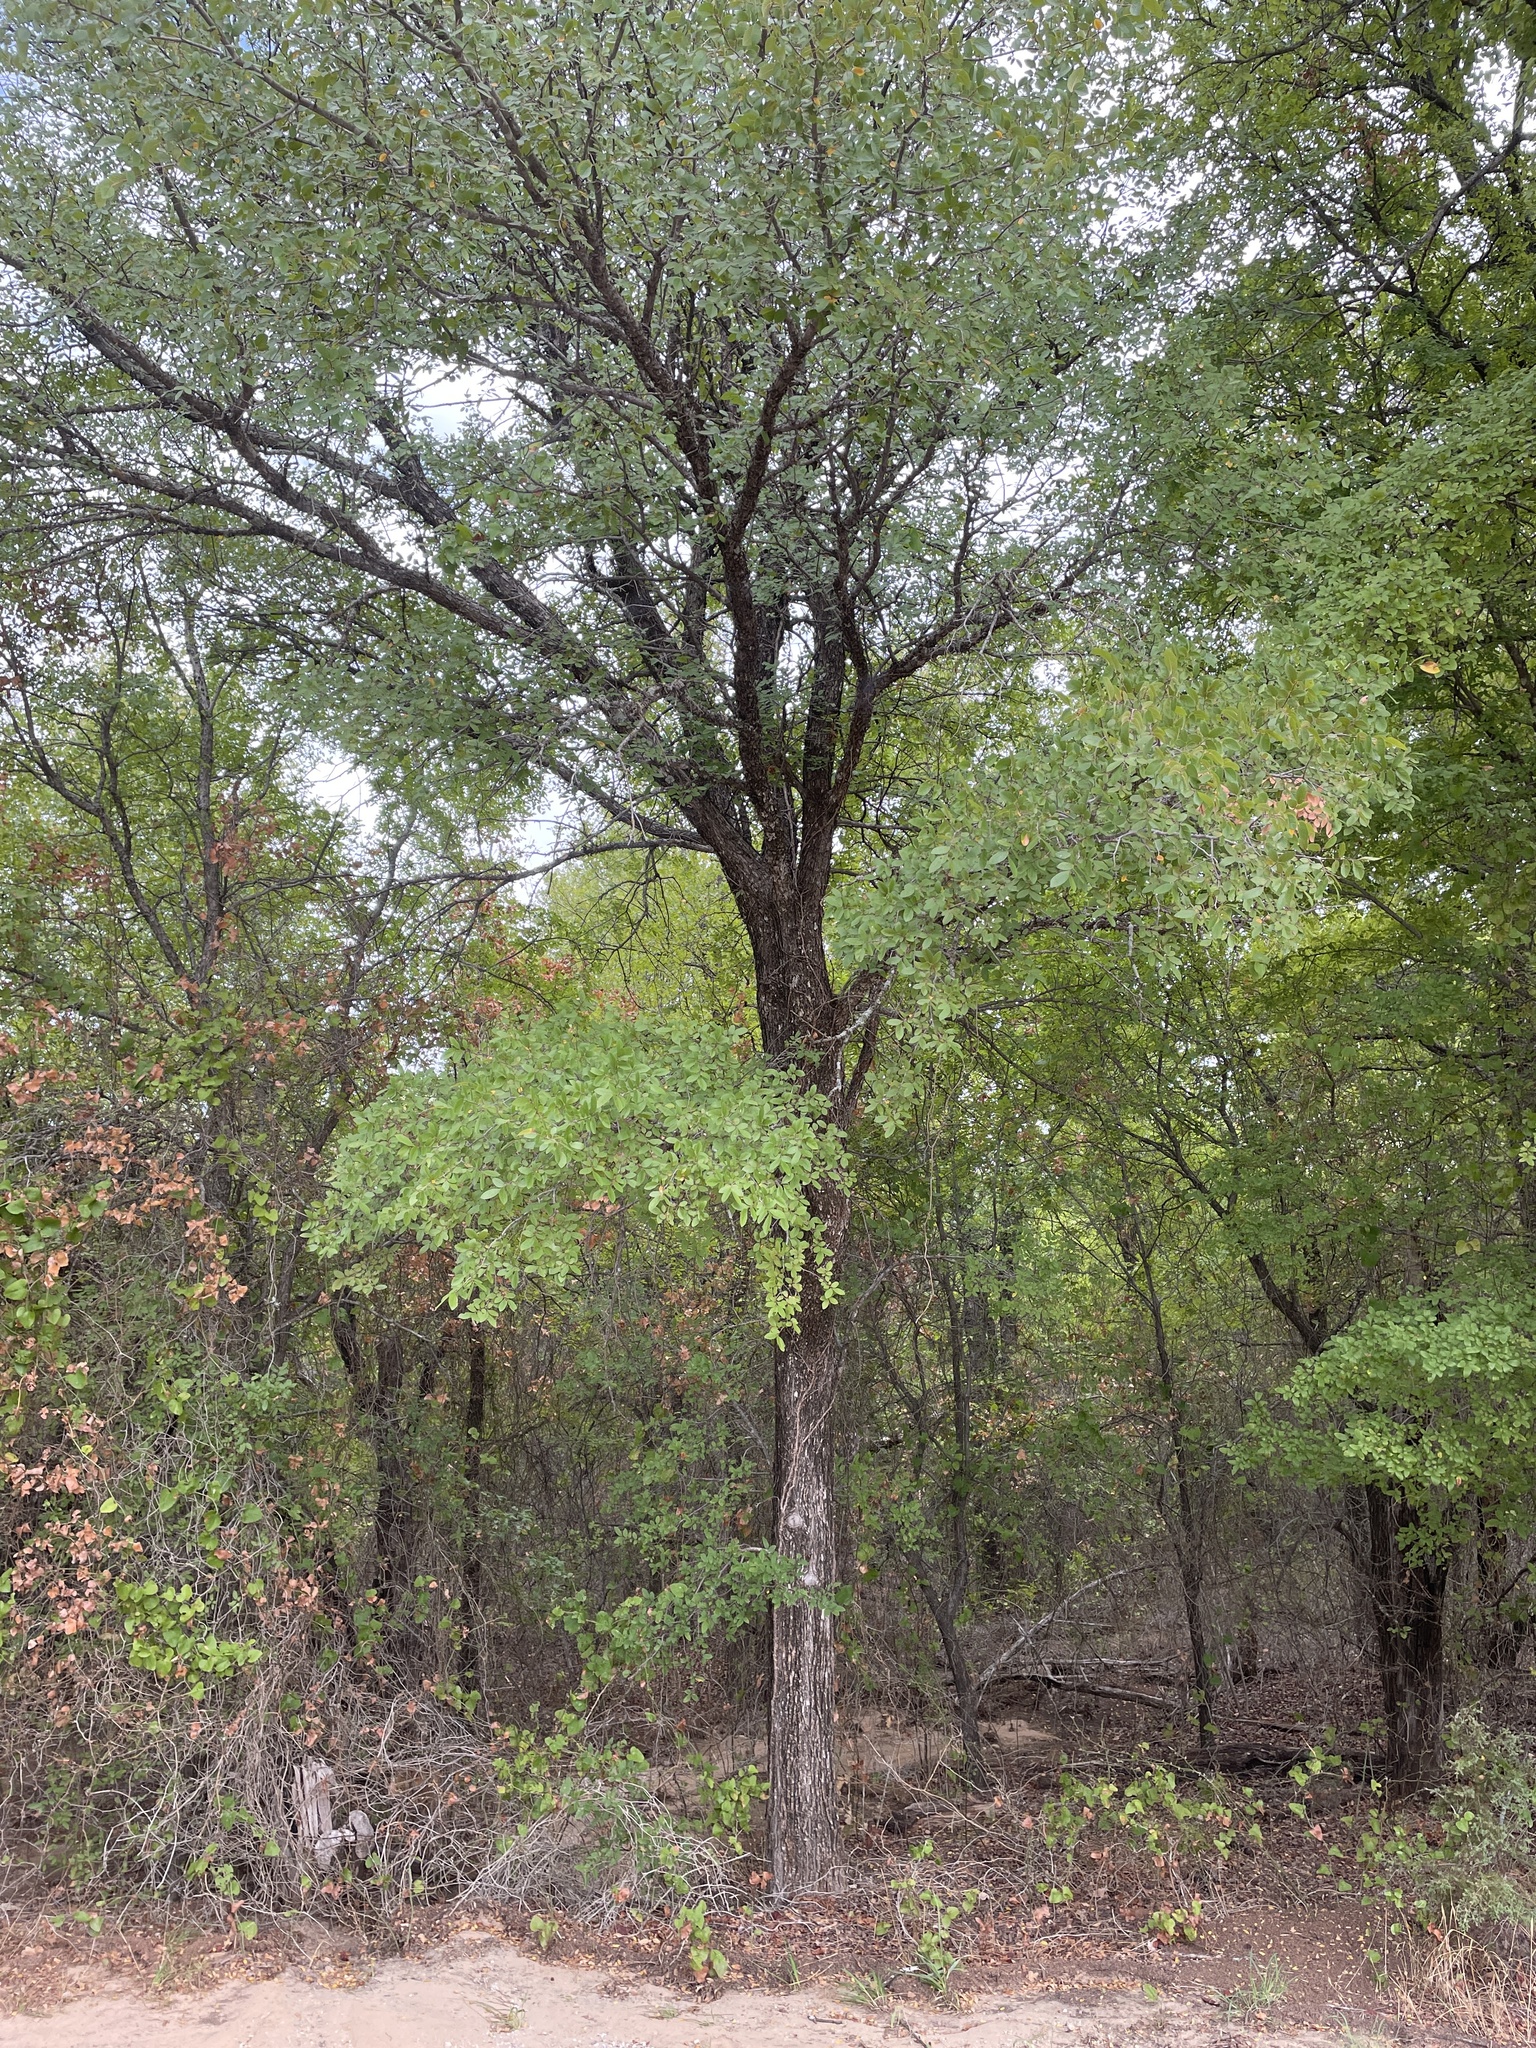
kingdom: Plantae
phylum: Tracheophyta
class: Magnoliopsida
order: Rosales
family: Ulmaceae
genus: Ulmus
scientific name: Ulmus crassifolia
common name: Basket elm
